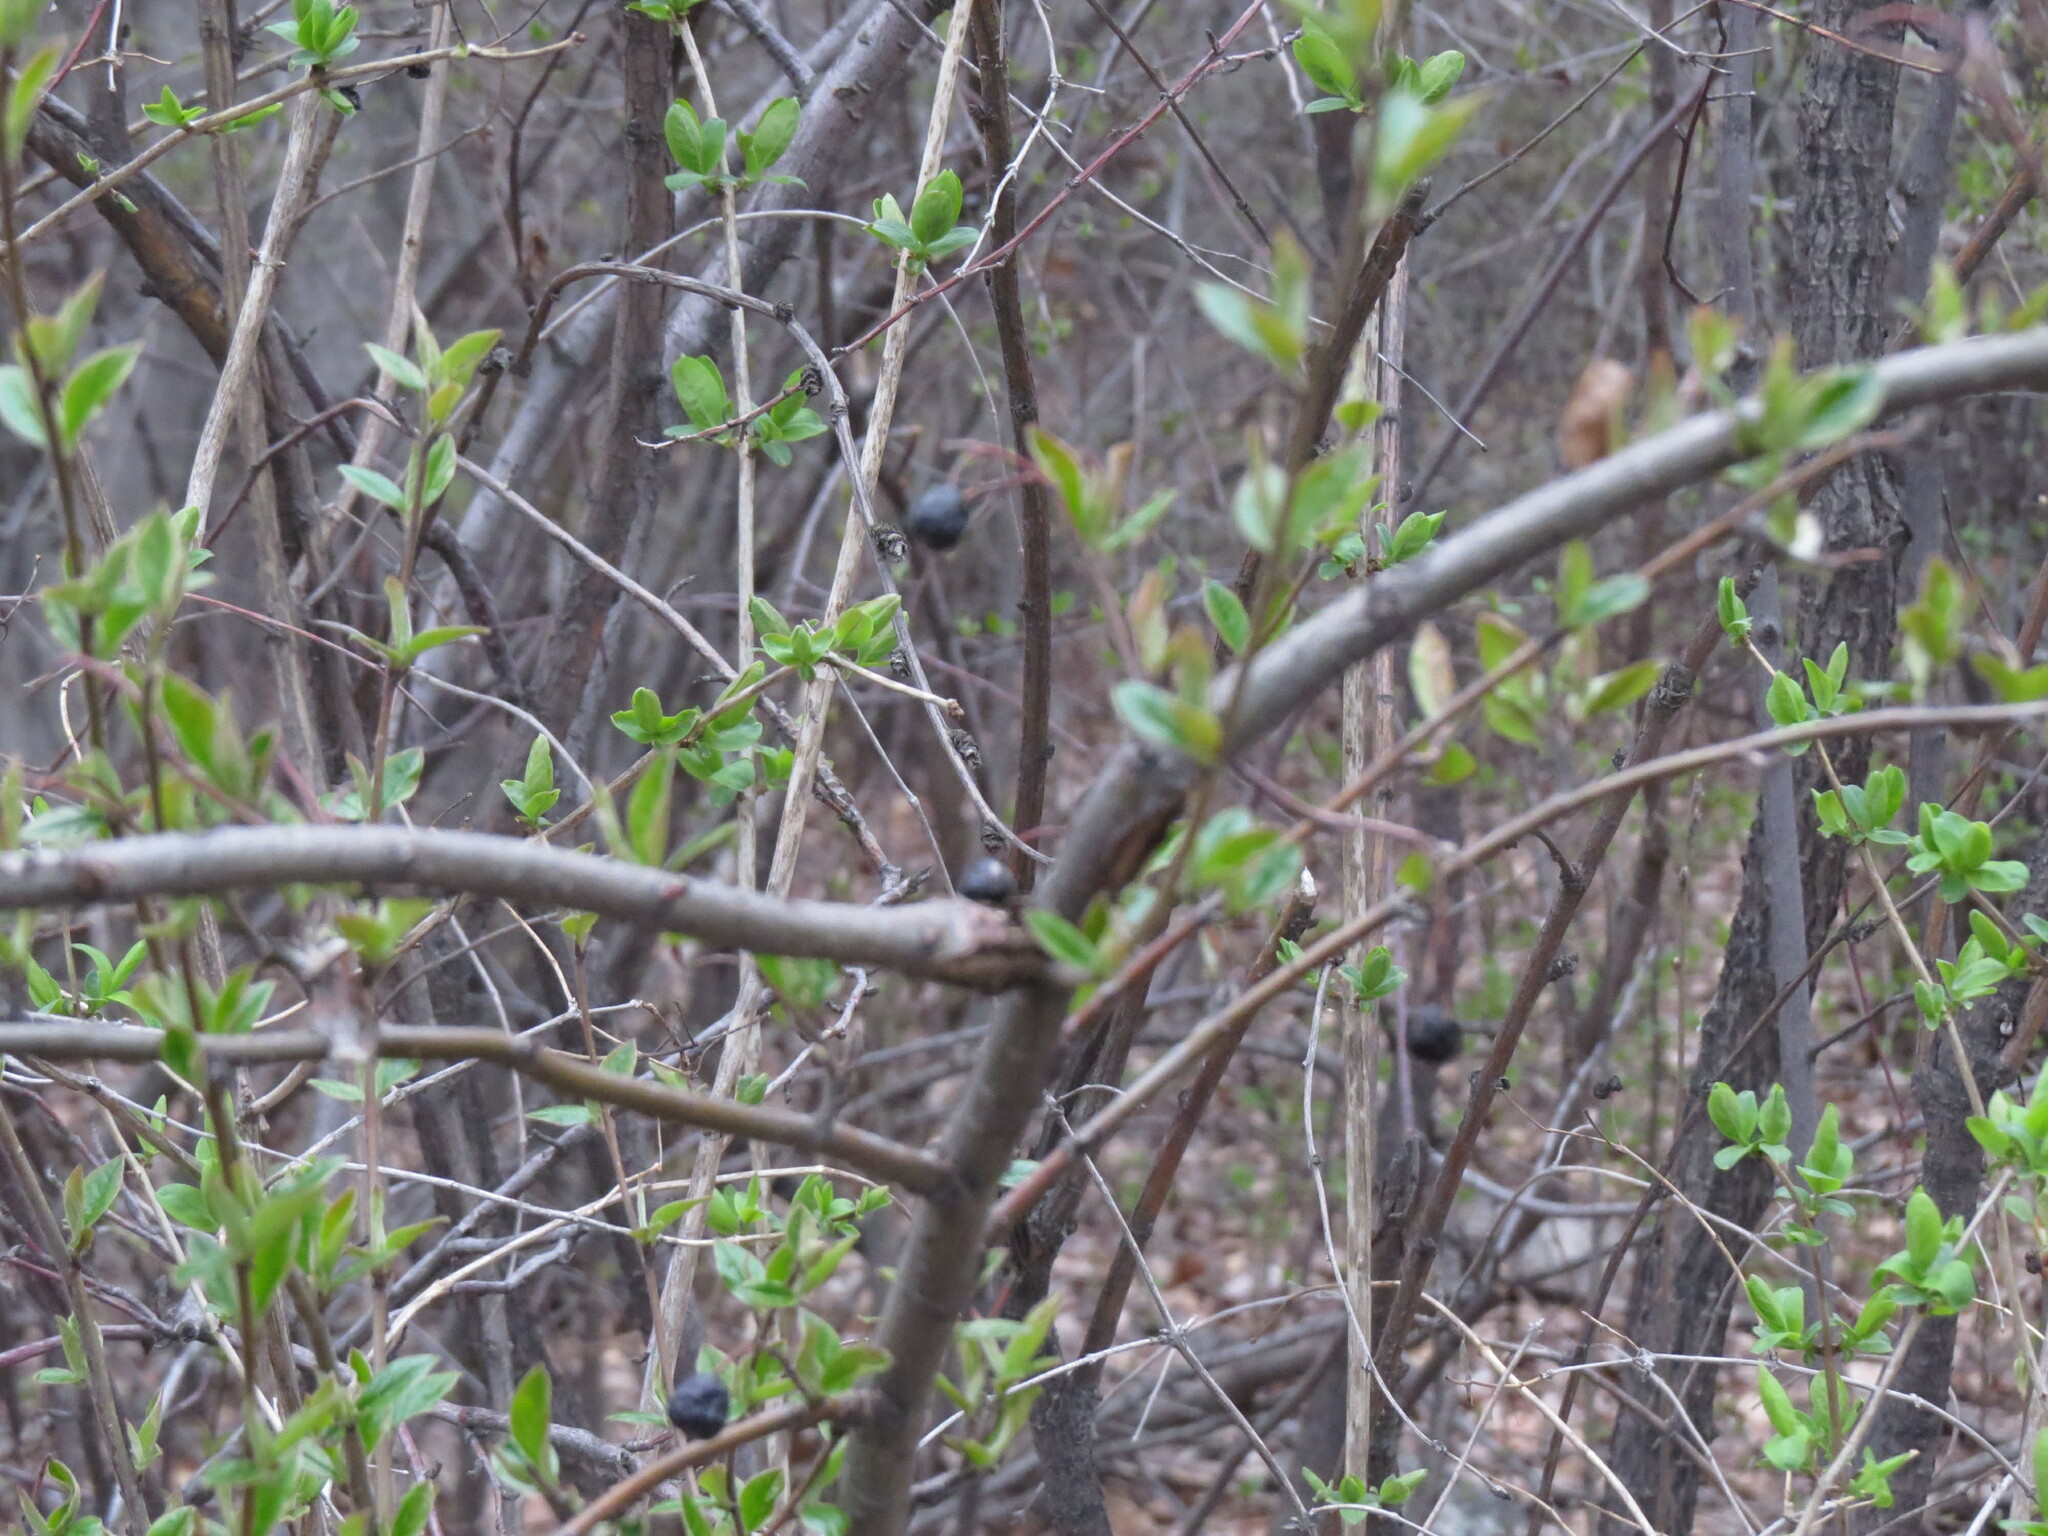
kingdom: Plantae
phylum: Tracheophyta
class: Magnoliopsida
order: Rosales
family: Rosaceae
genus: Cotoneaster
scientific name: Cotoneaster acutifolius
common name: Peking cotoneaster
